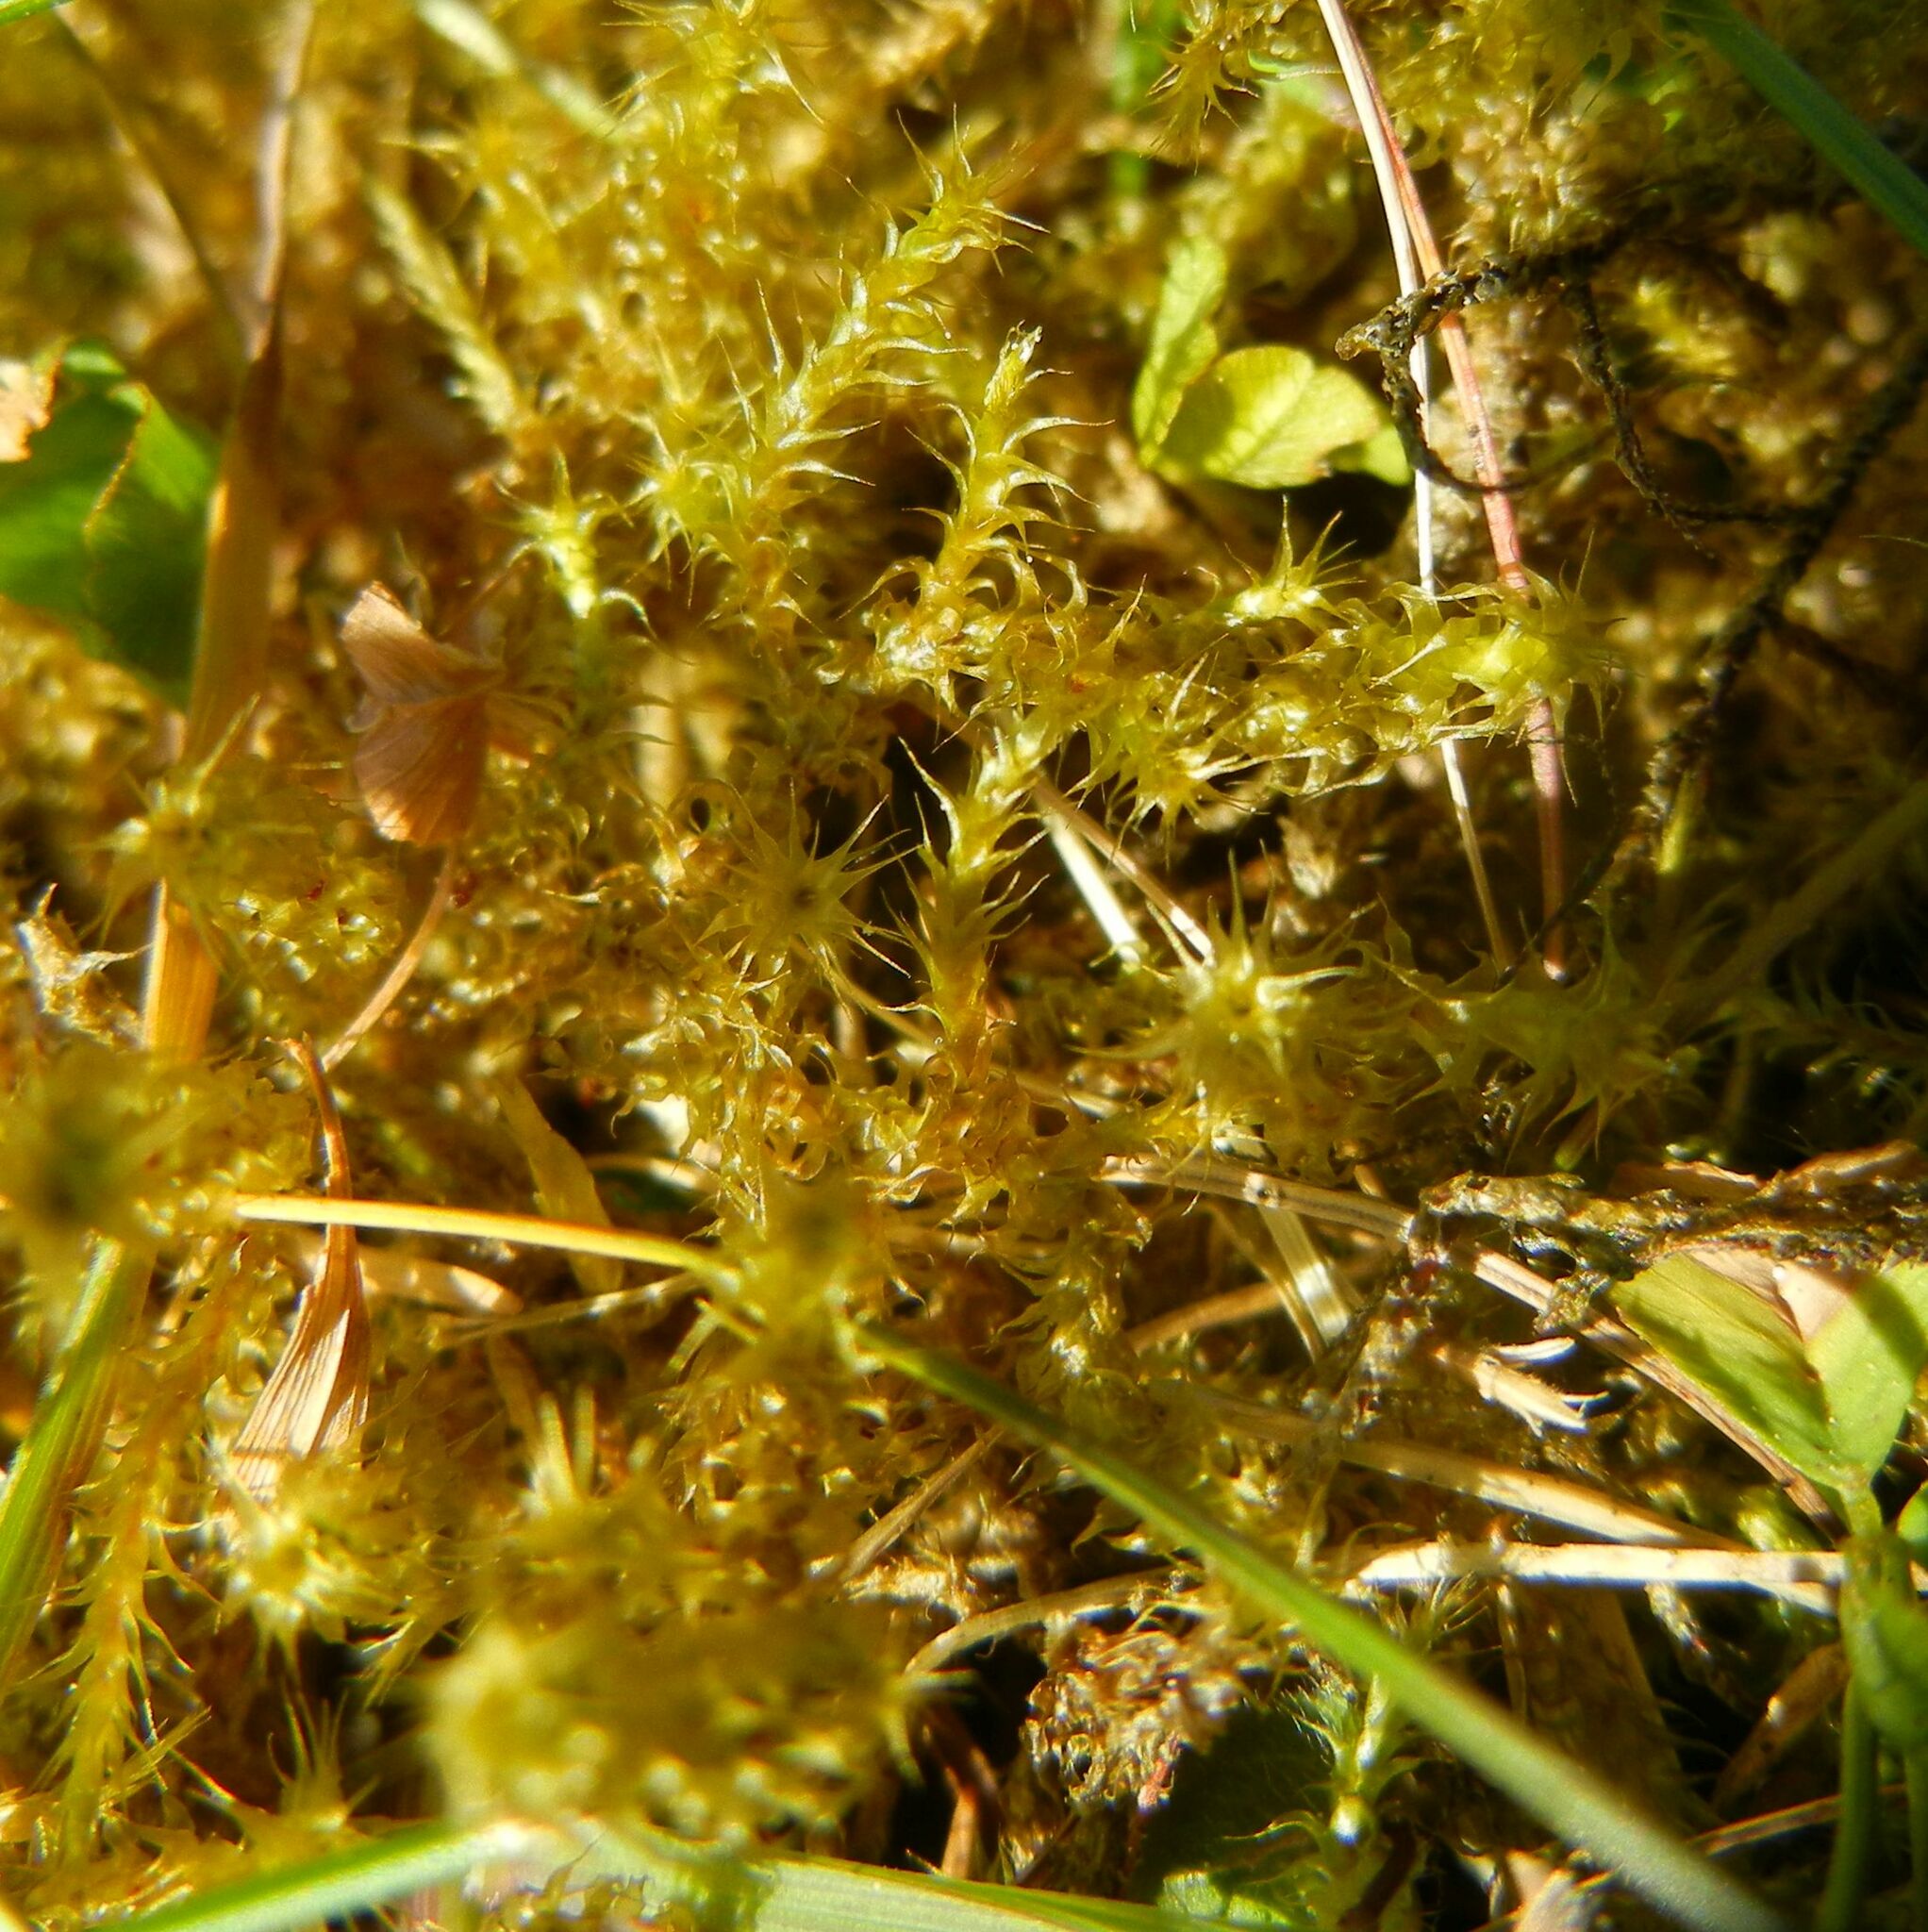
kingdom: Plantae
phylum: Bryophyta
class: Bryopsida
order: Hypnales
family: Hylocomiaceae
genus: Rhytidiadelphus
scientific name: Rhytidiadelphus squarrosus
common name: Springy turf-moss
